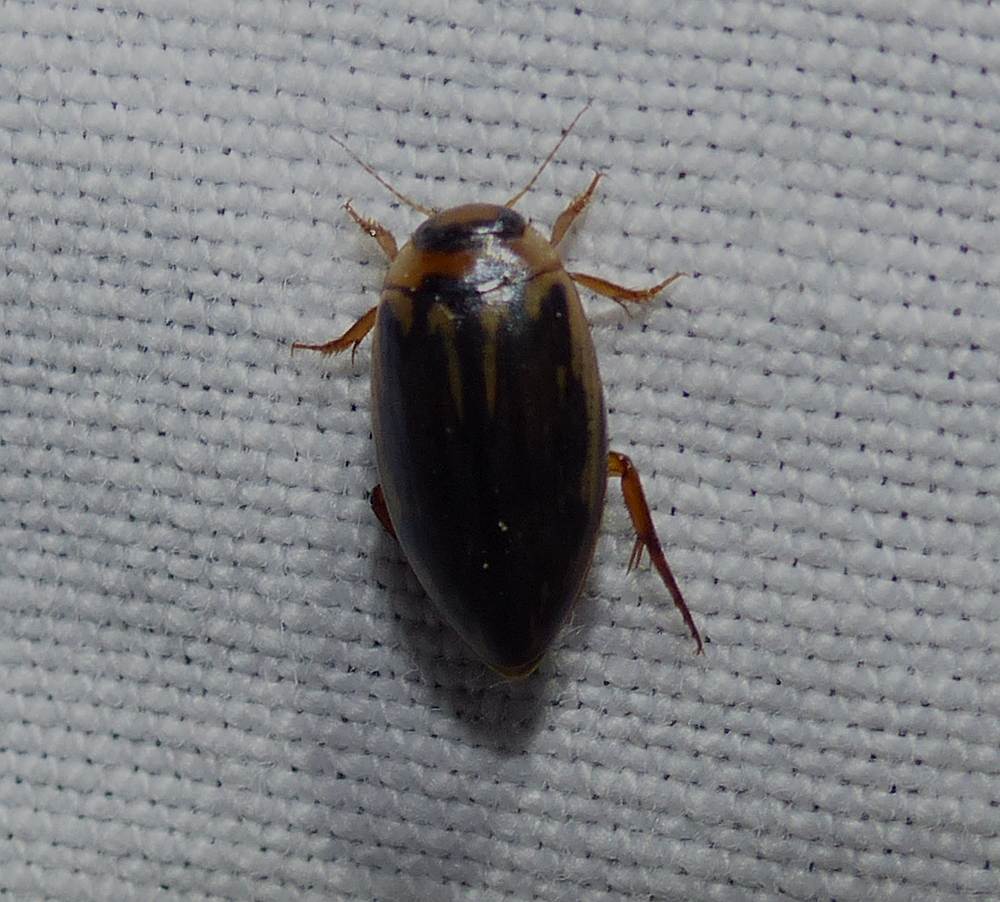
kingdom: Animalia
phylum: Arthropoda
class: Insecta
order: Coleoptera
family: Dytiscidae
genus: Coptotomus
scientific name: Coptotomus longulus
